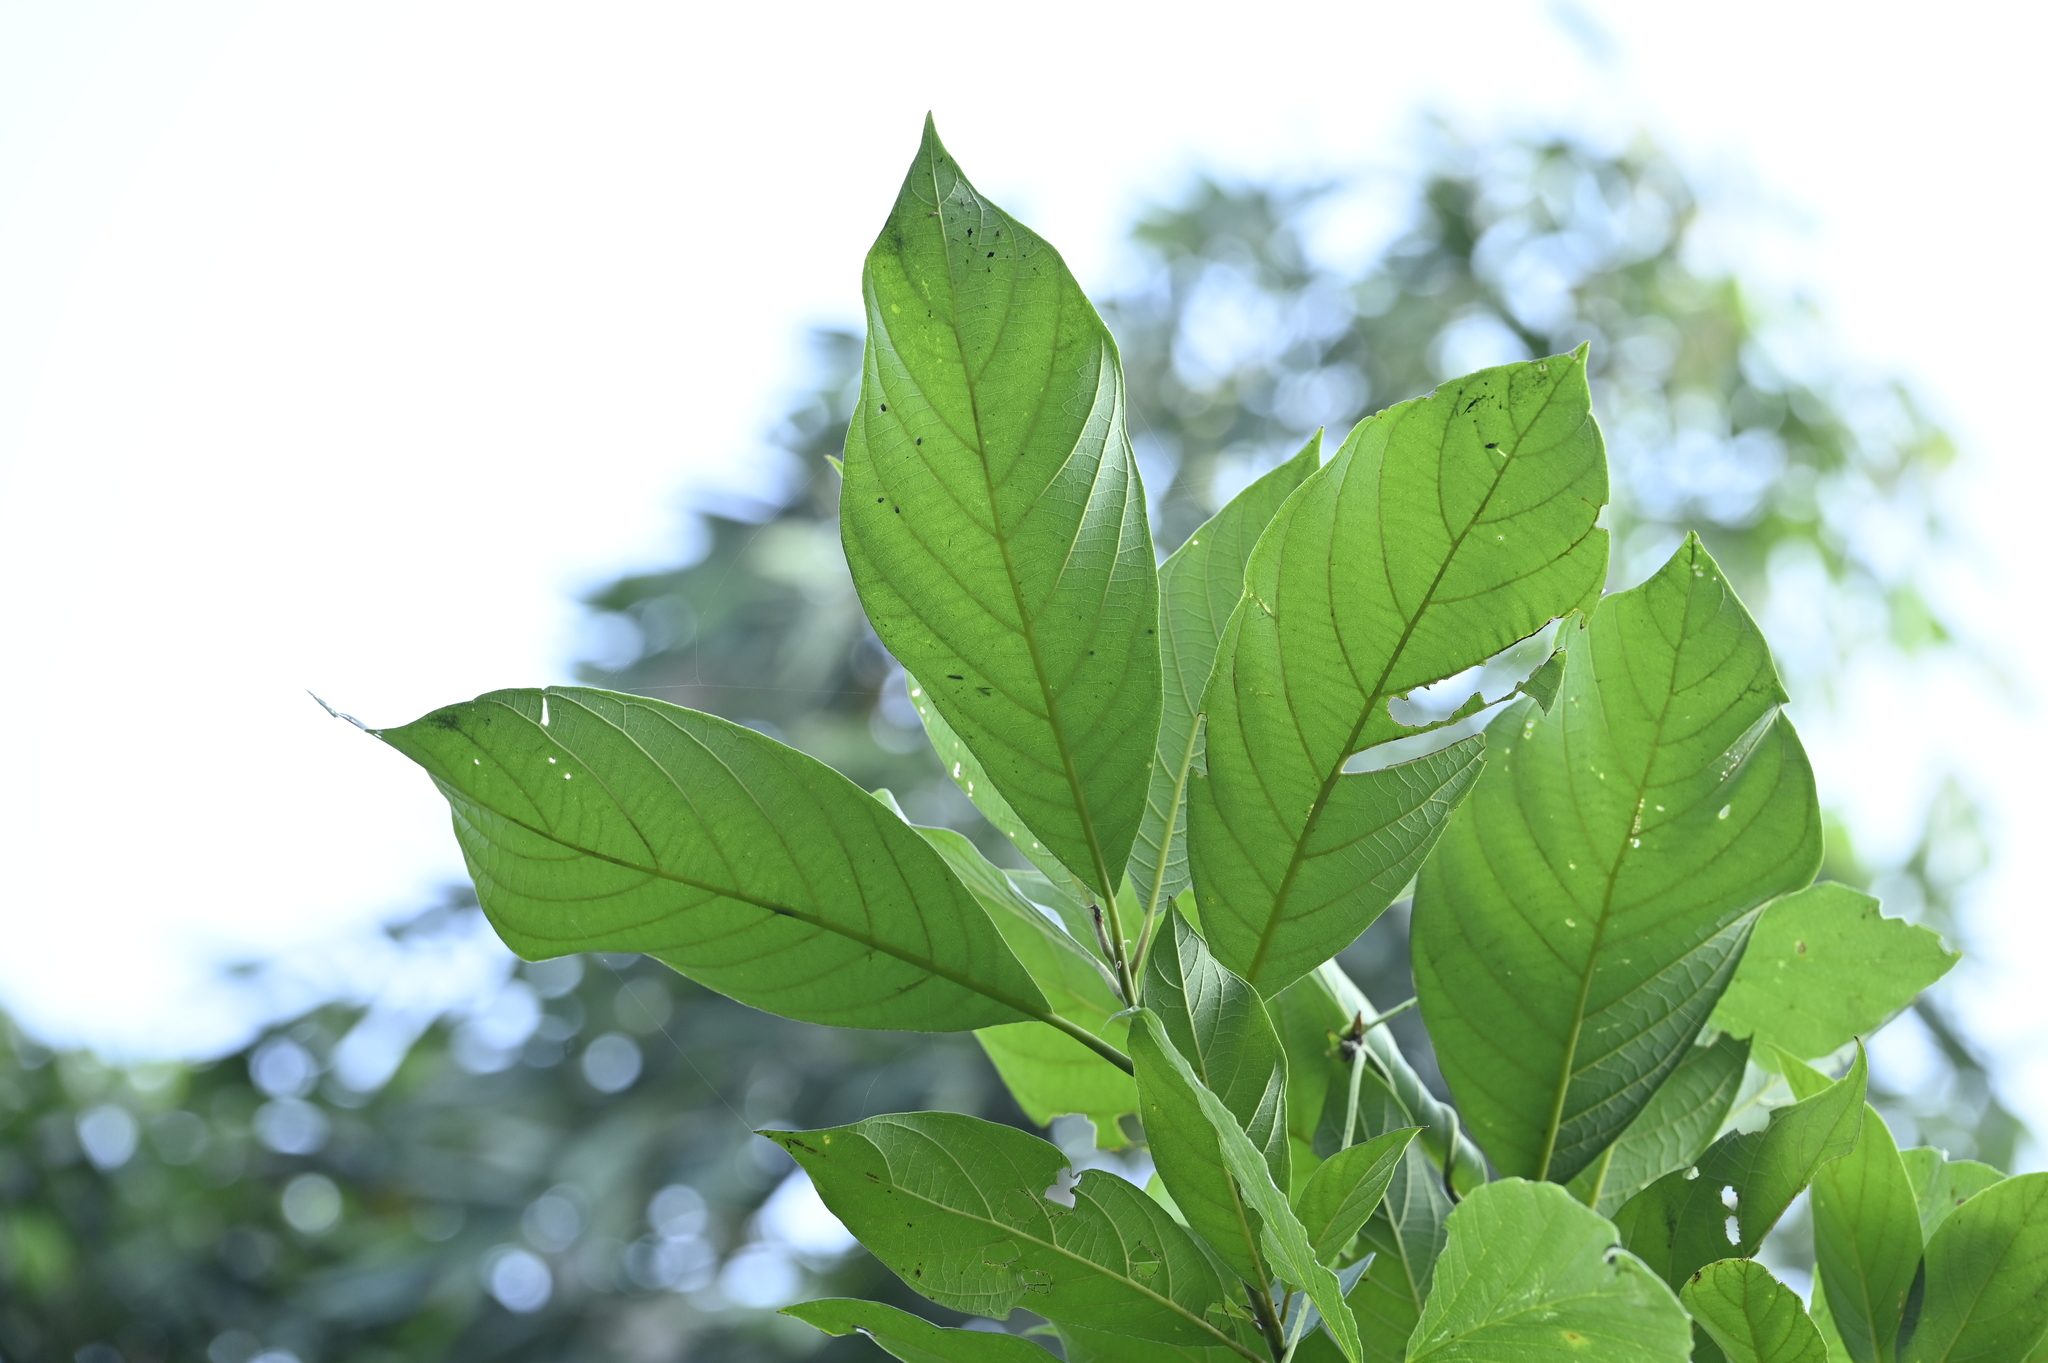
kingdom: Plantae
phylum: Tracheophyta
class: Magnoliopsida
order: Laurales
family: Lauraceae
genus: Phoebe
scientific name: Phoebe formosana
